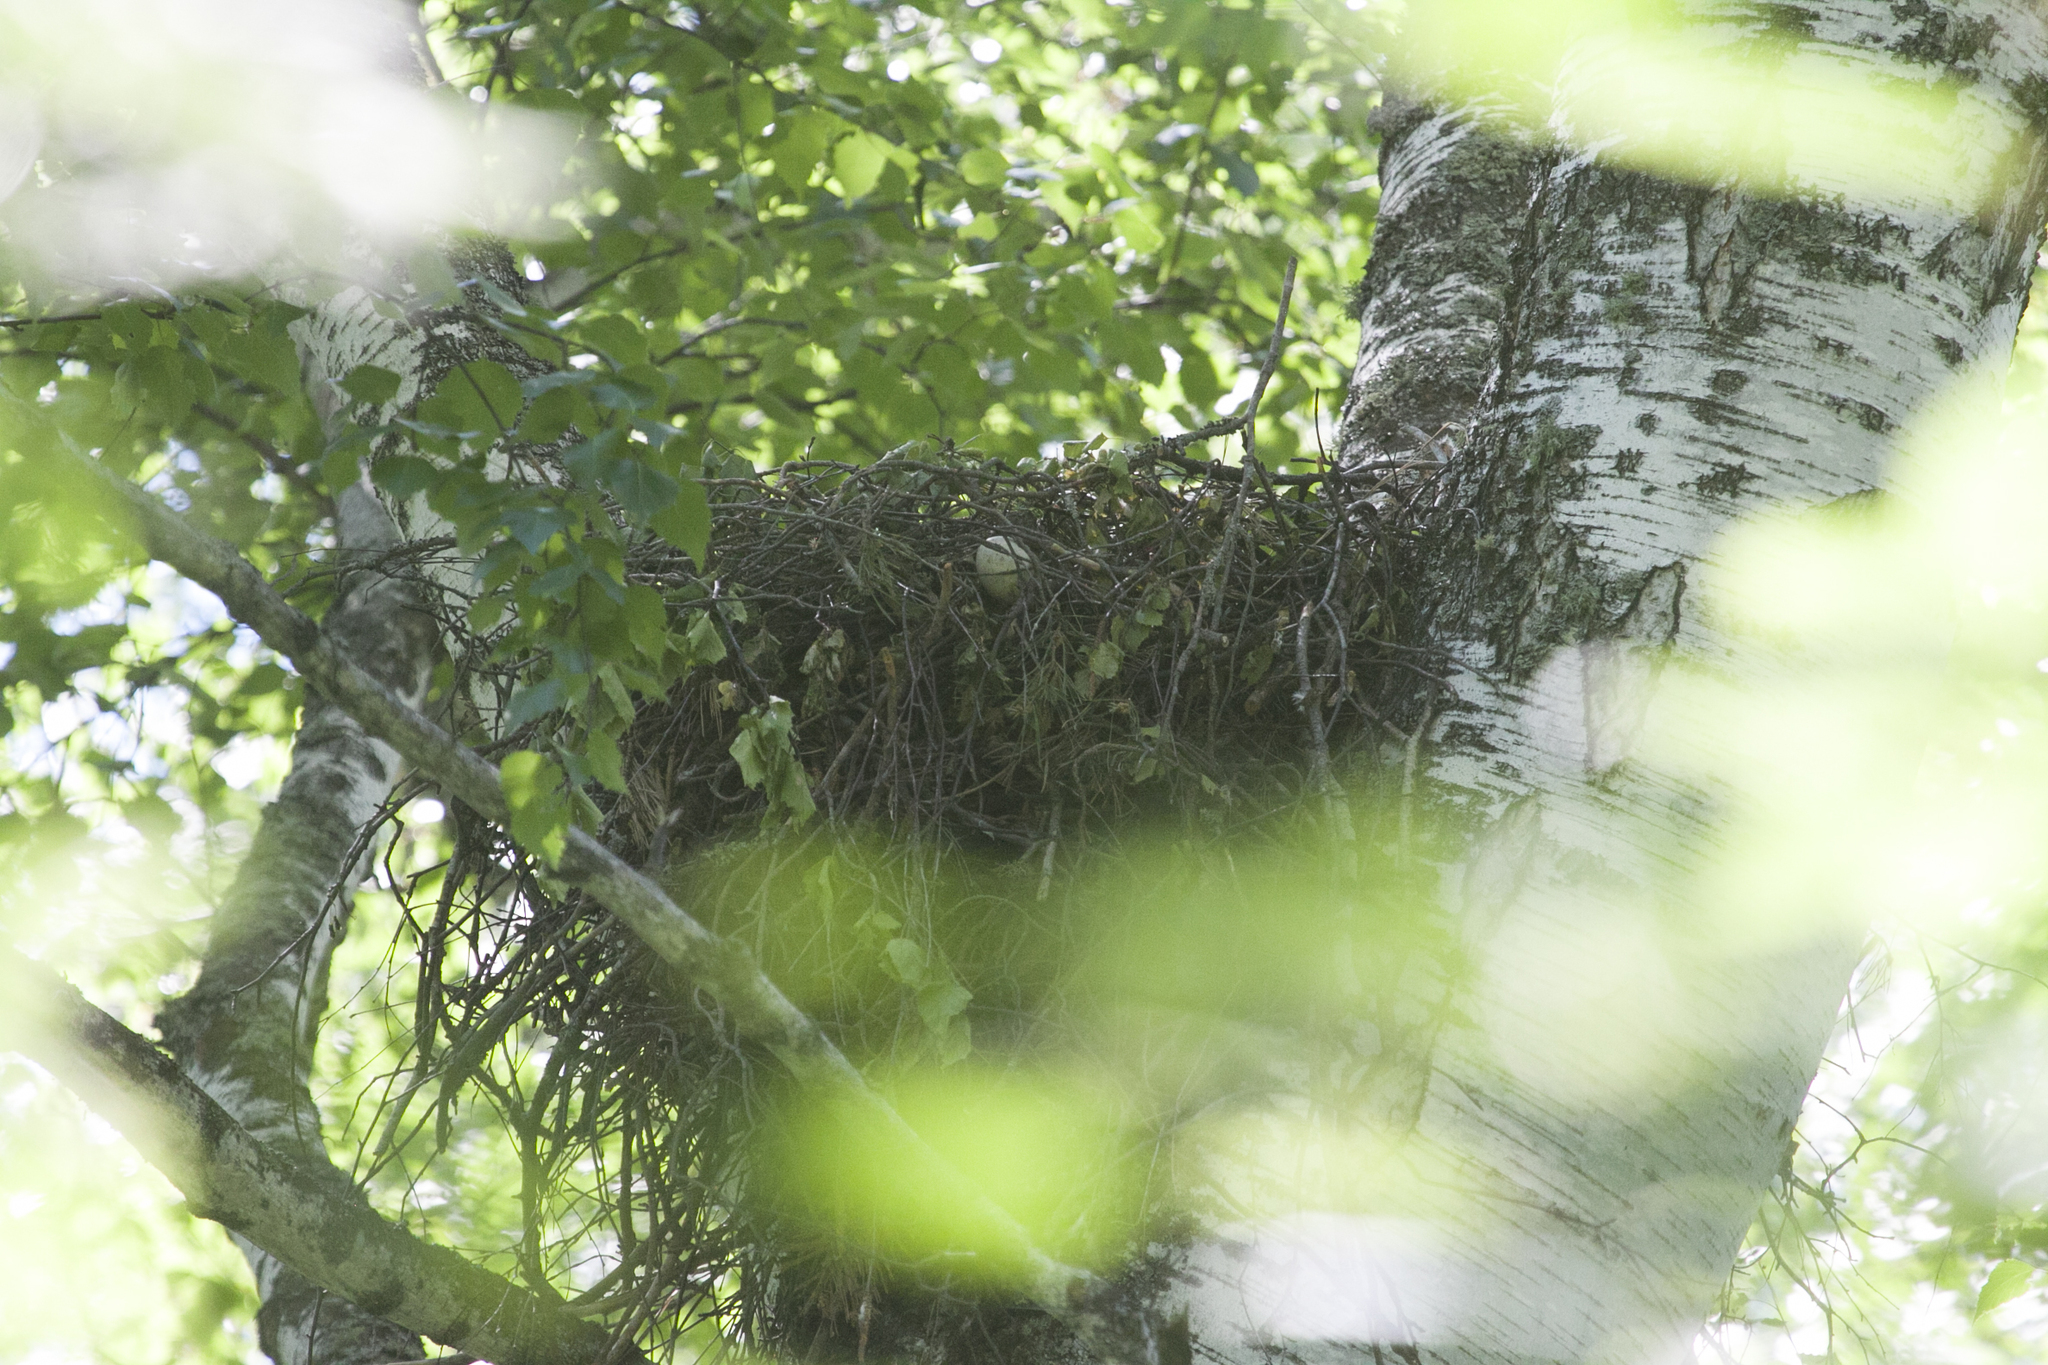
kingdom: Animalia
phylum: Chordata
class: Aves
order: Accipitriformes
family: Accipitridae
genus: Buteo
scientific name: Buteo buteo
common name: Common buzzard
